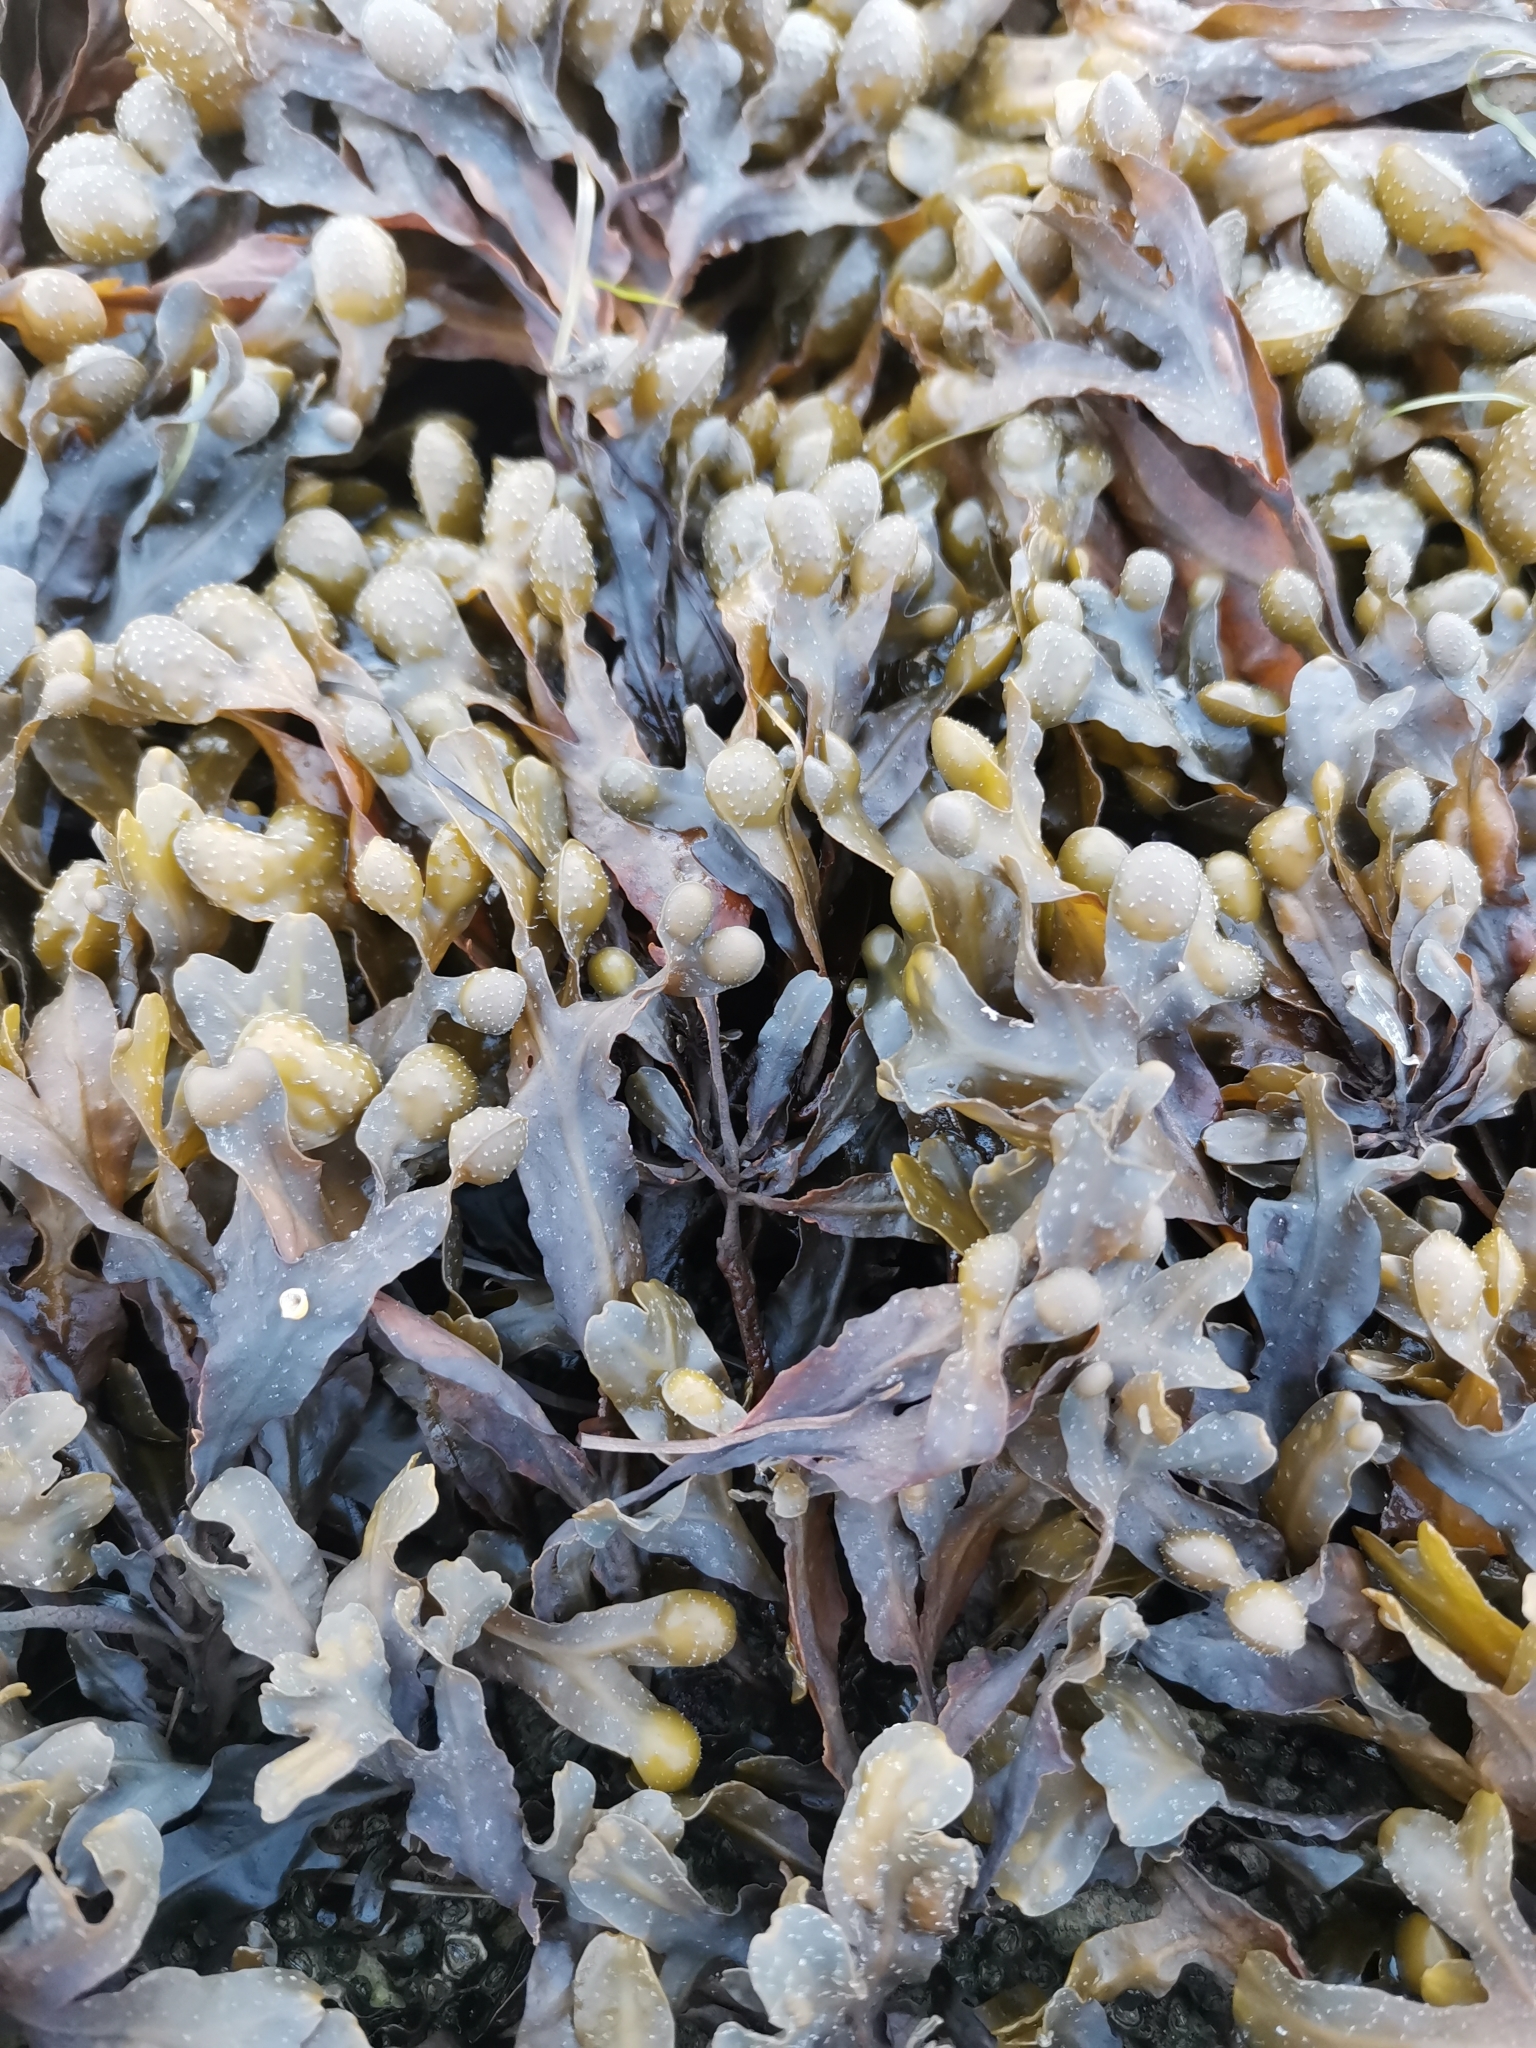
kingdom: Chromista
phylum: Ochrophyta
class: Phaeophyceae
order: Fucales
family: Fucaceae
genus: Fucus
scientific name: Fucus spiralis
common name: Spiral wrack
